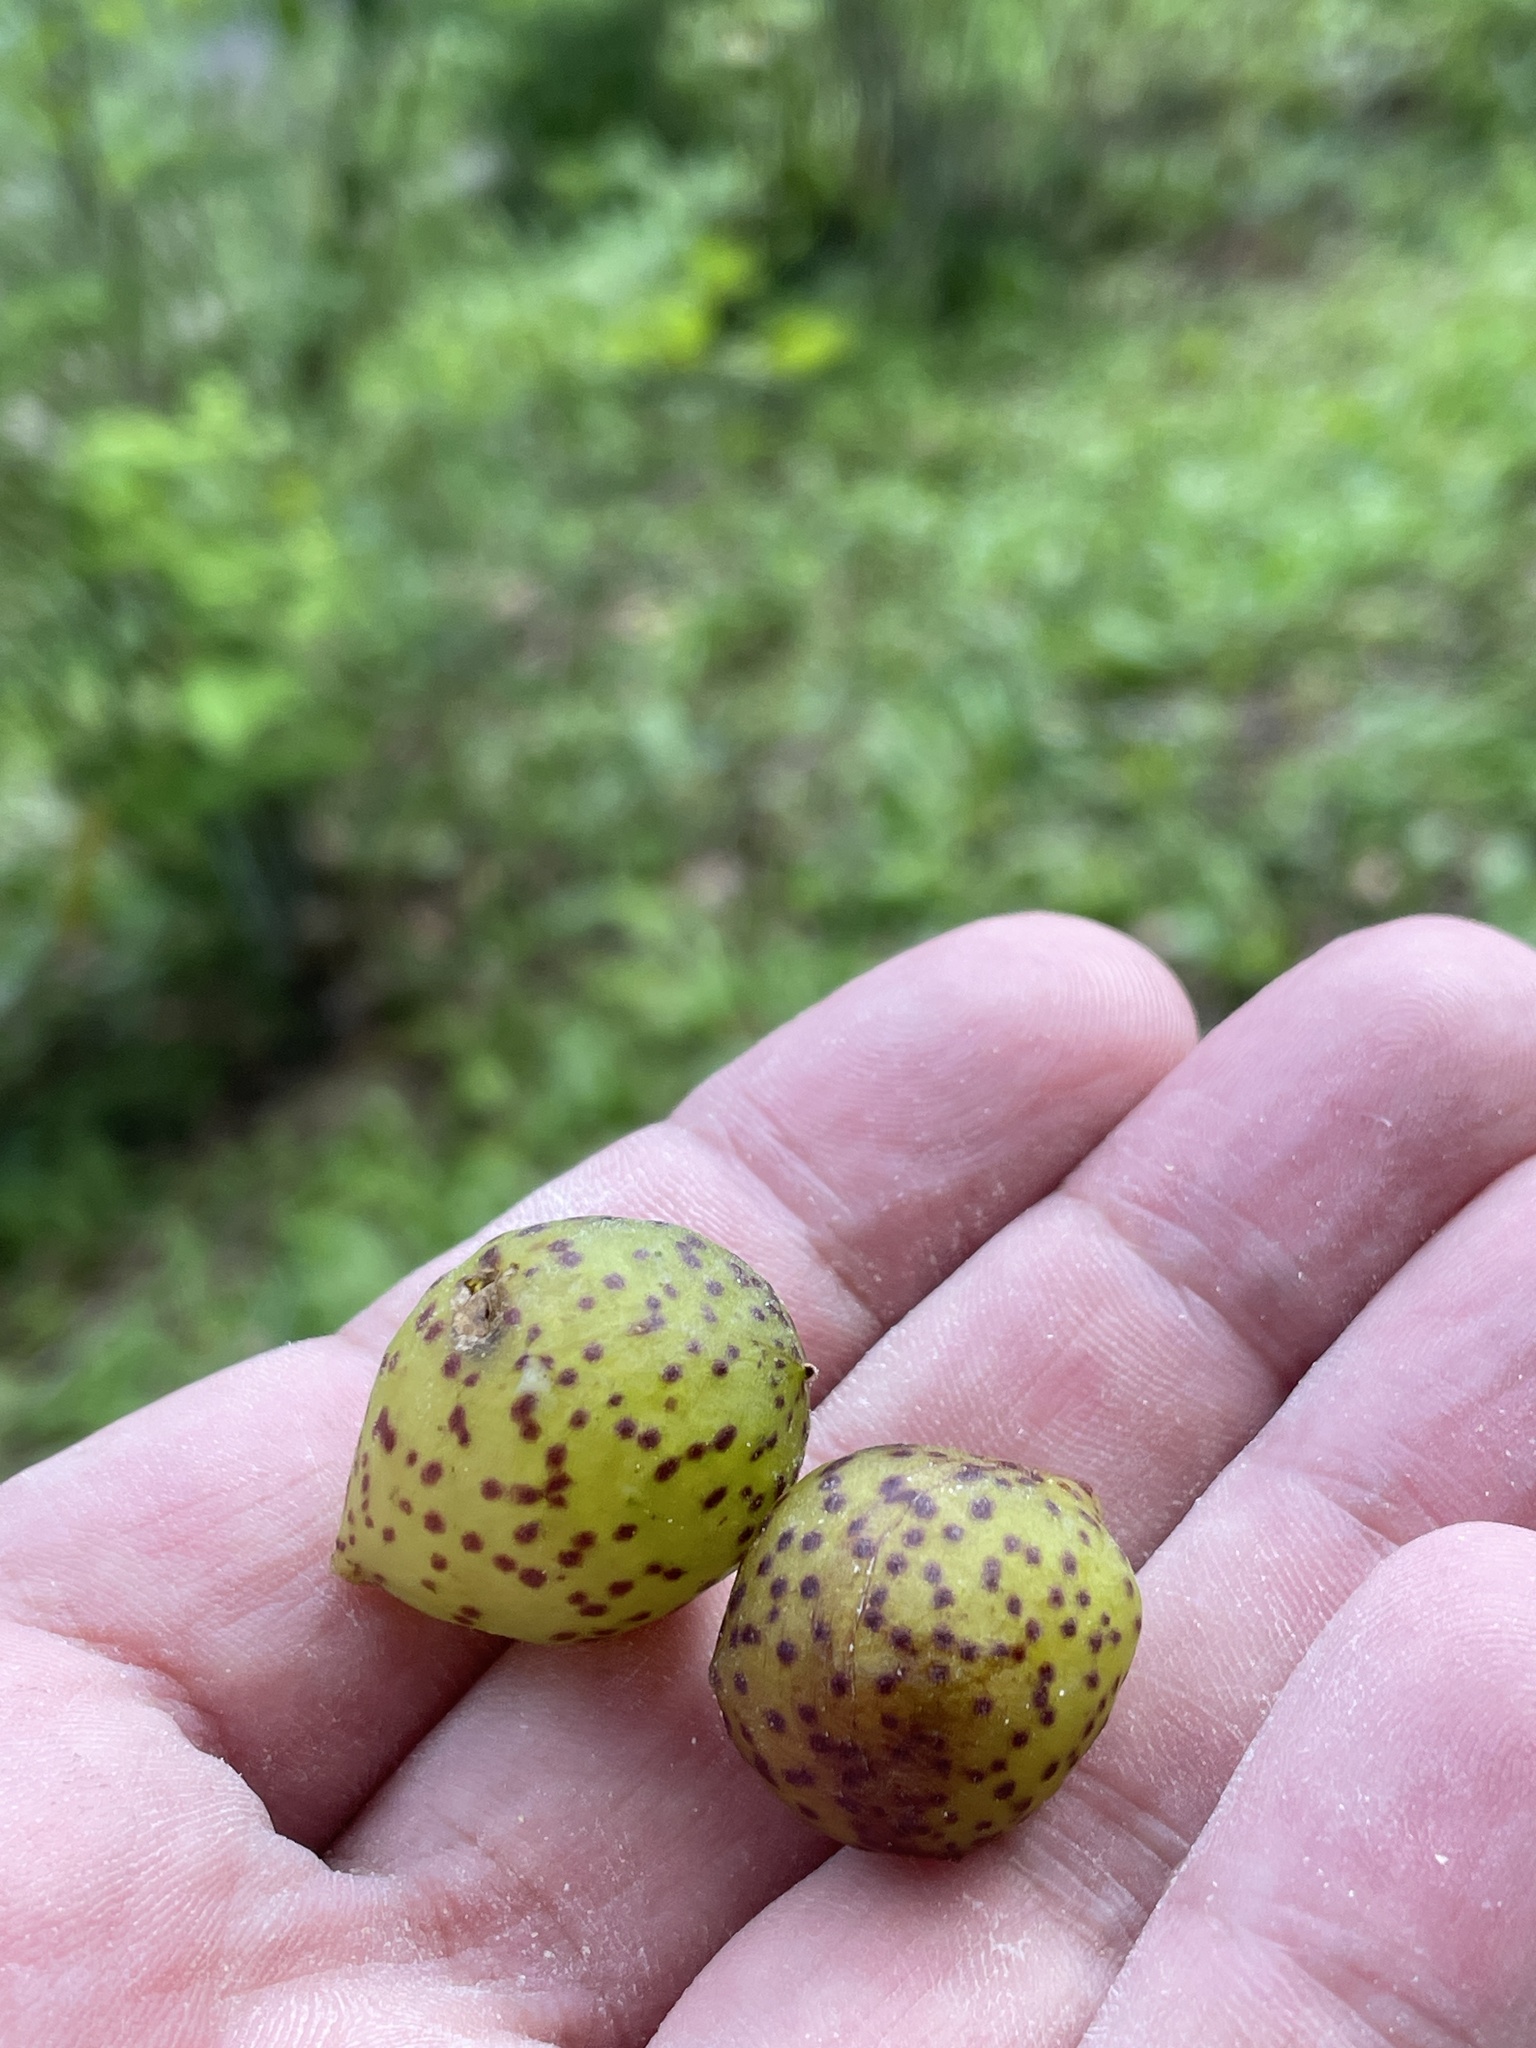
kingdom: Animalia
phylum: Arthropoda
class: Insecta
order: Hymenoptera
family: Cynipidae
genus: Amphibolips
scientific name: Amphibolips
